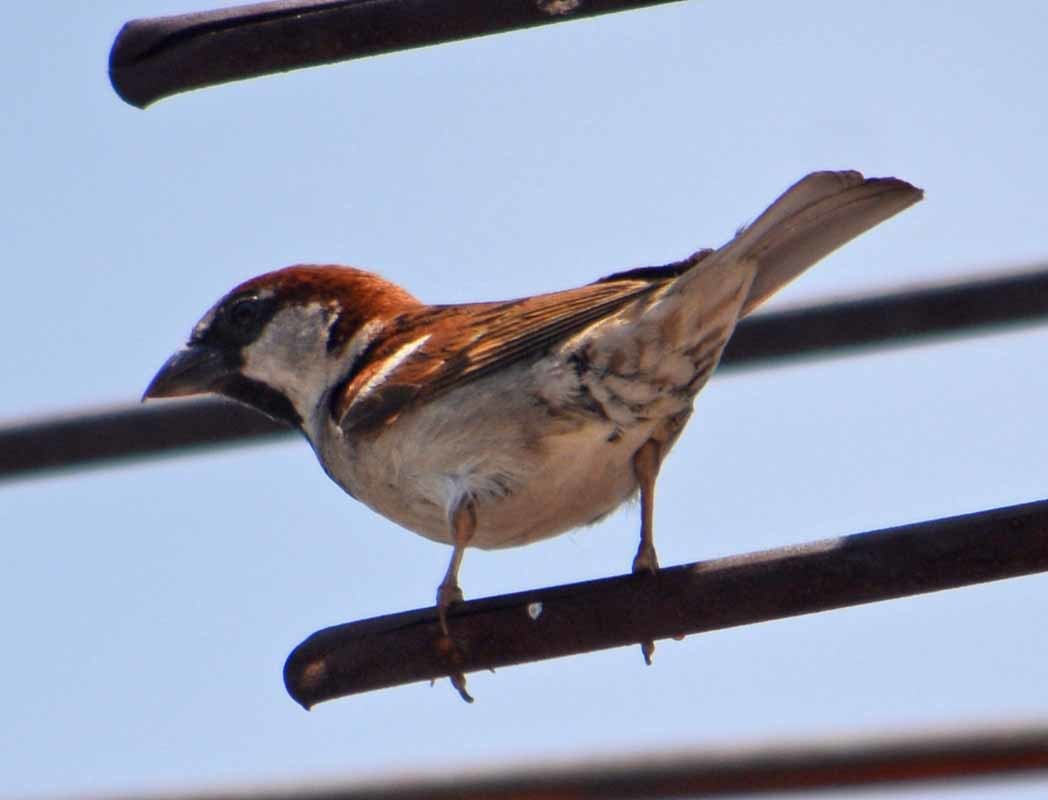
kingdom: Animalia
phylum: Chordata
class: Aves
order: Passeriformes
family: Passeridae
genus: Passer
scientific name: Passer domesticus
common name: House sparrow
